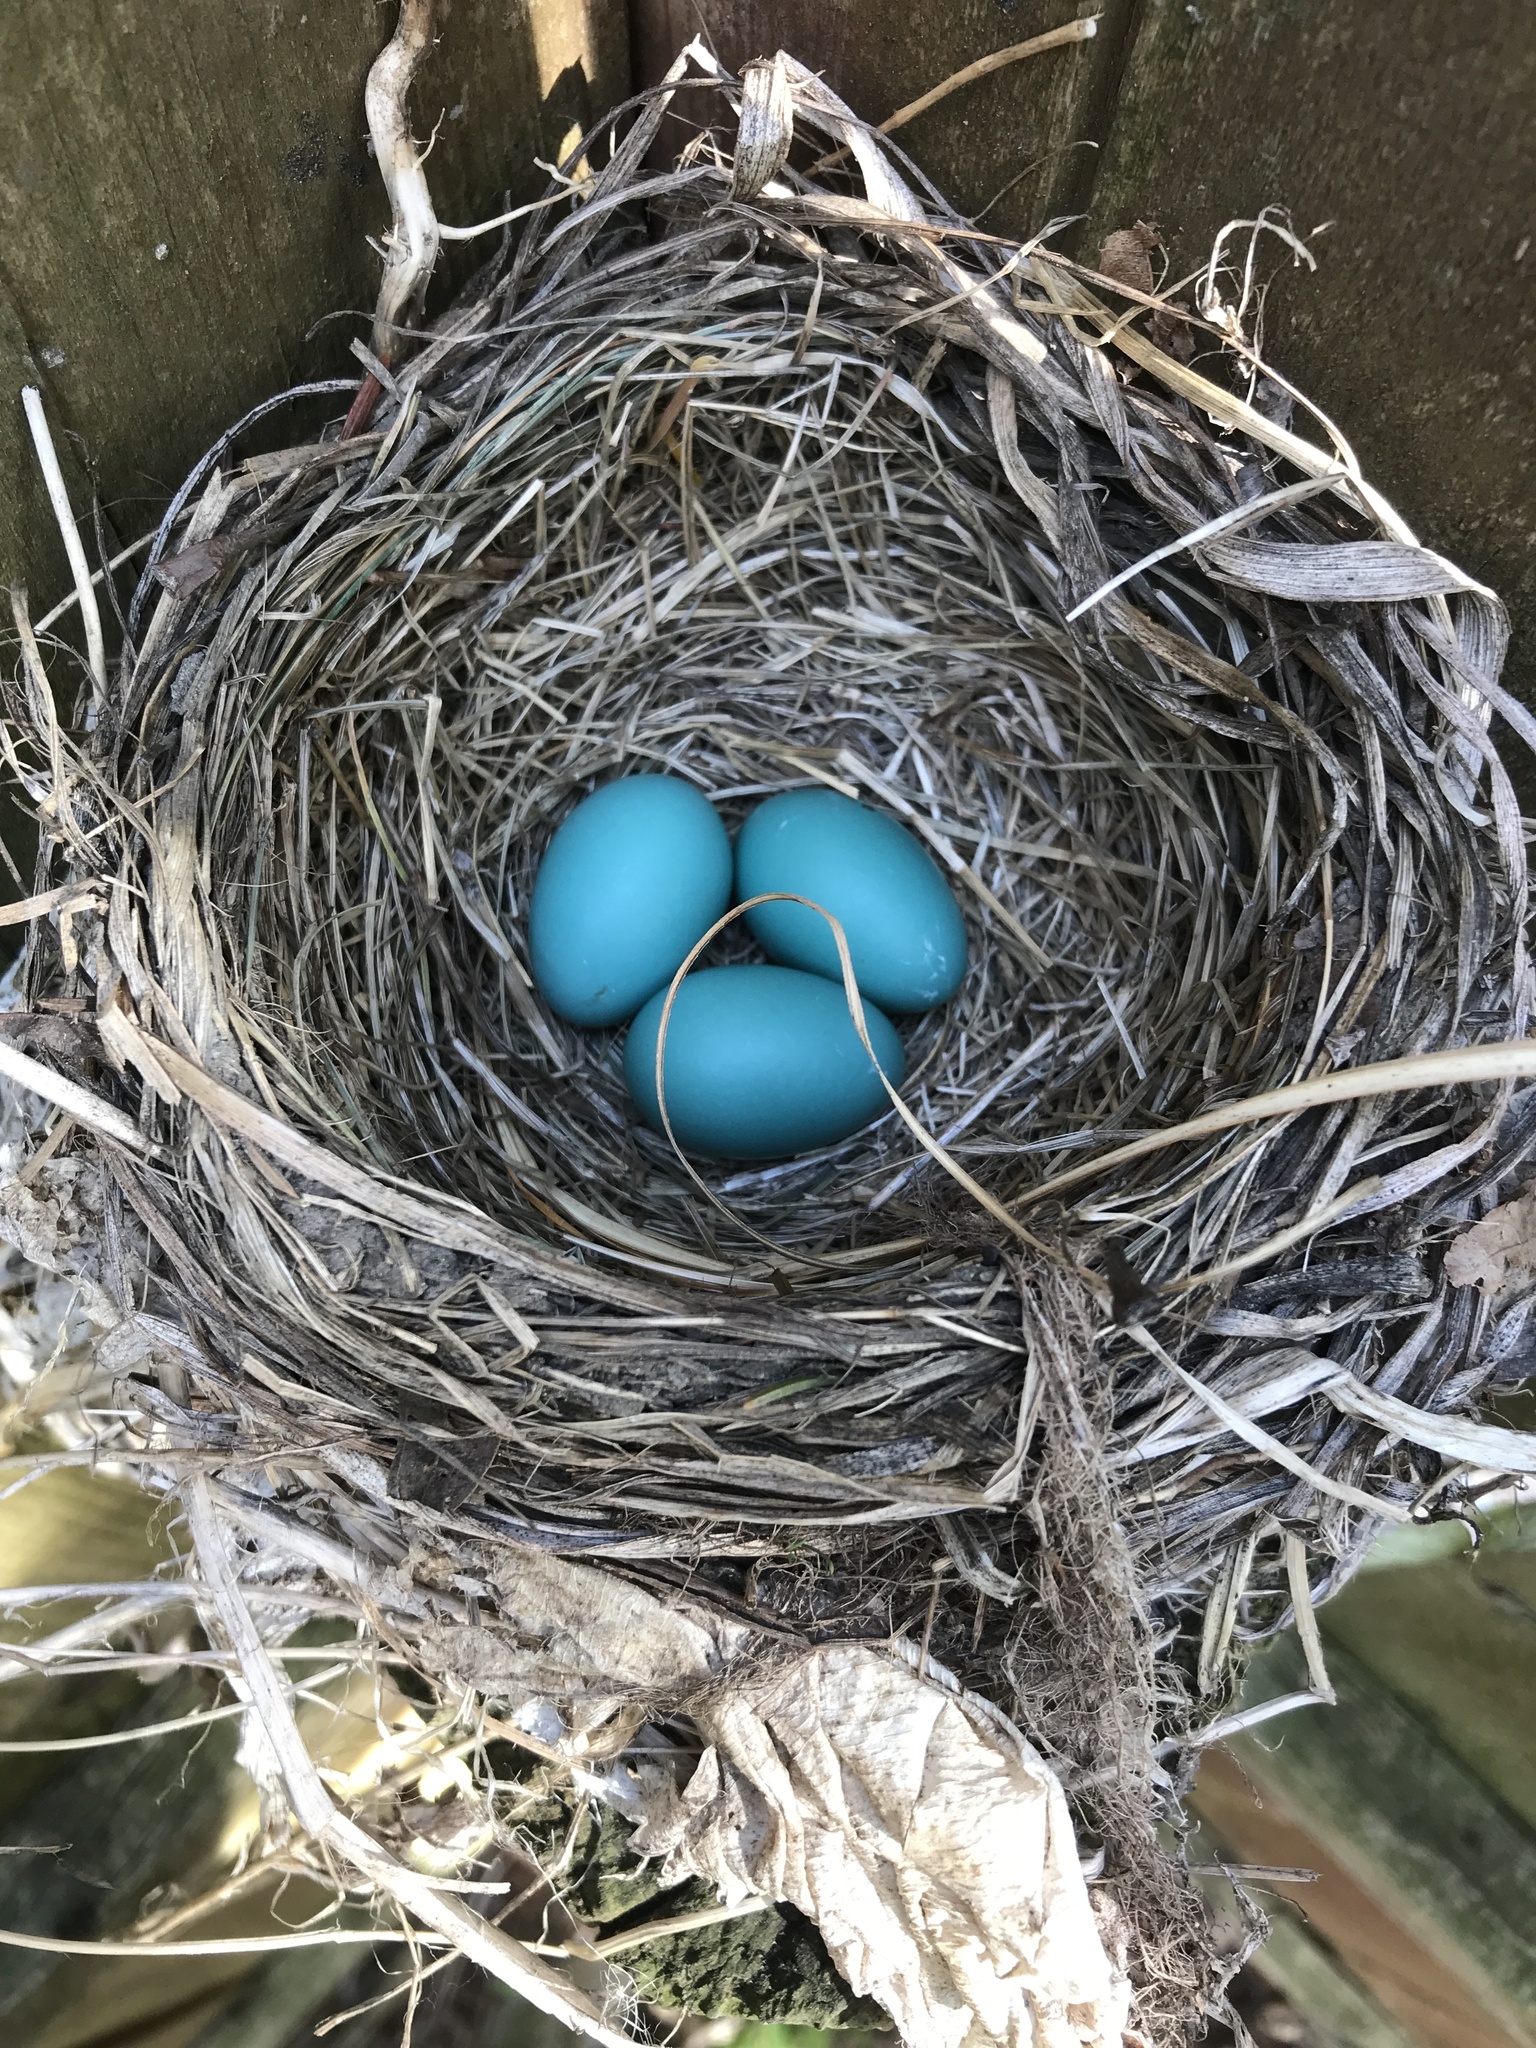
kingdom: Animalia
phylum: Chordata
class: Aves
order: Passeriformes
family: Turdidae
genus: Turdus
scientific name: Turdus migratorius
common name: American robin
